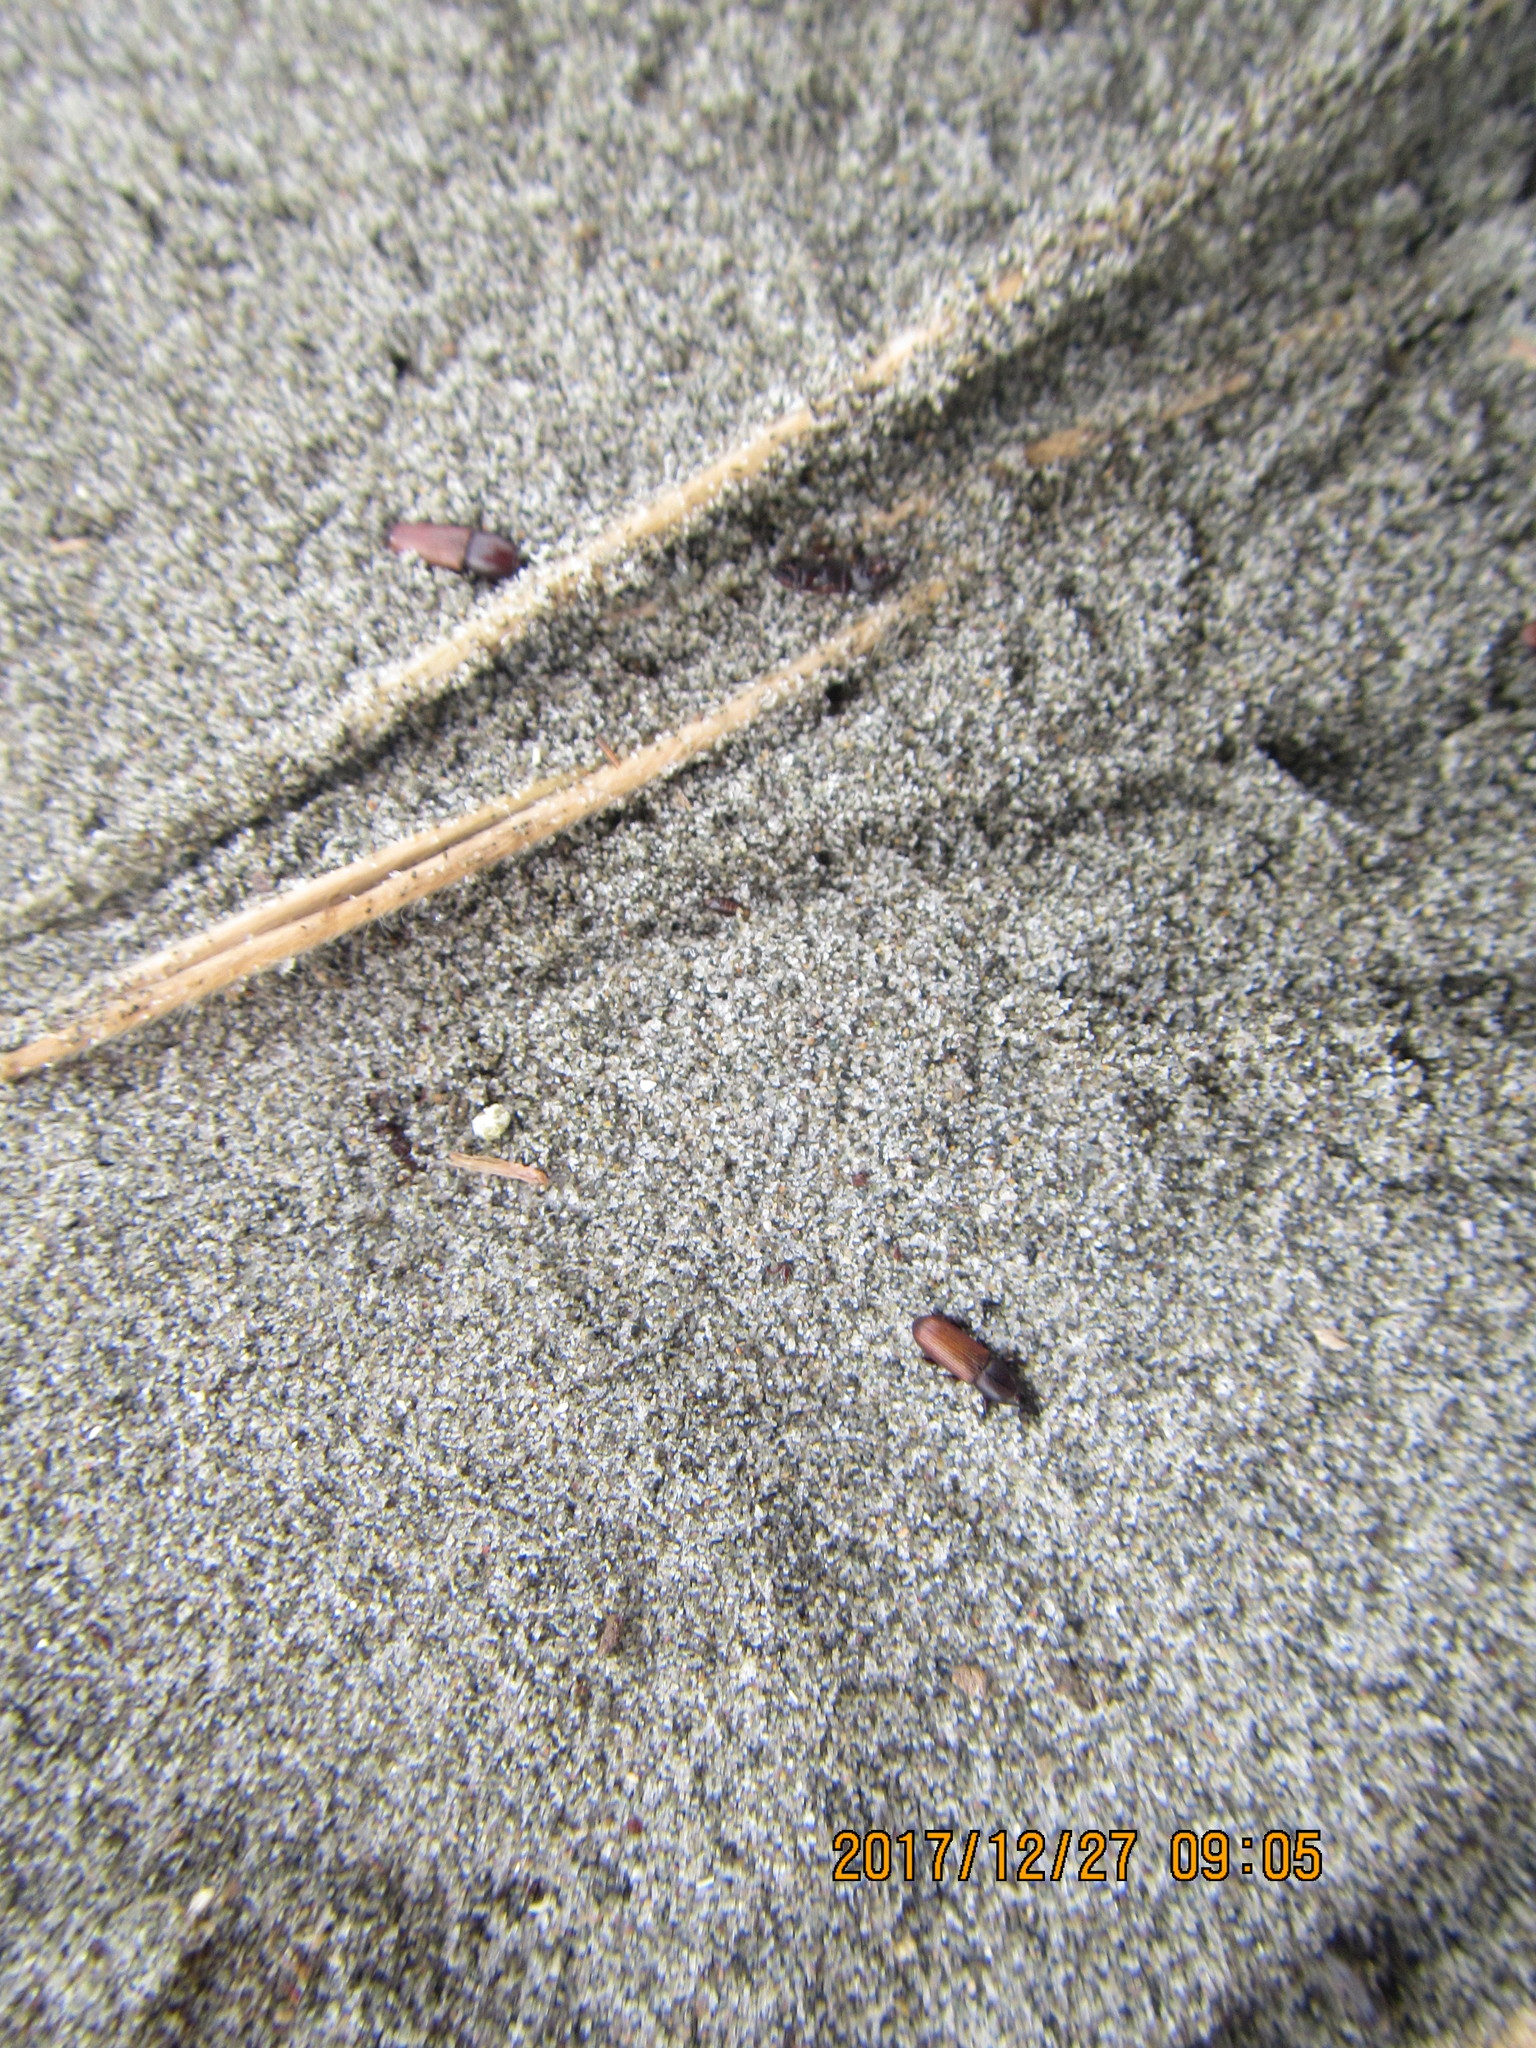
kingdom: Animalia
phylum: Arthropoda
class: Insecta
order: Coleoptera
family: Curculionidae
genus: Mesites
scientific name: Mesites pallidipennis
